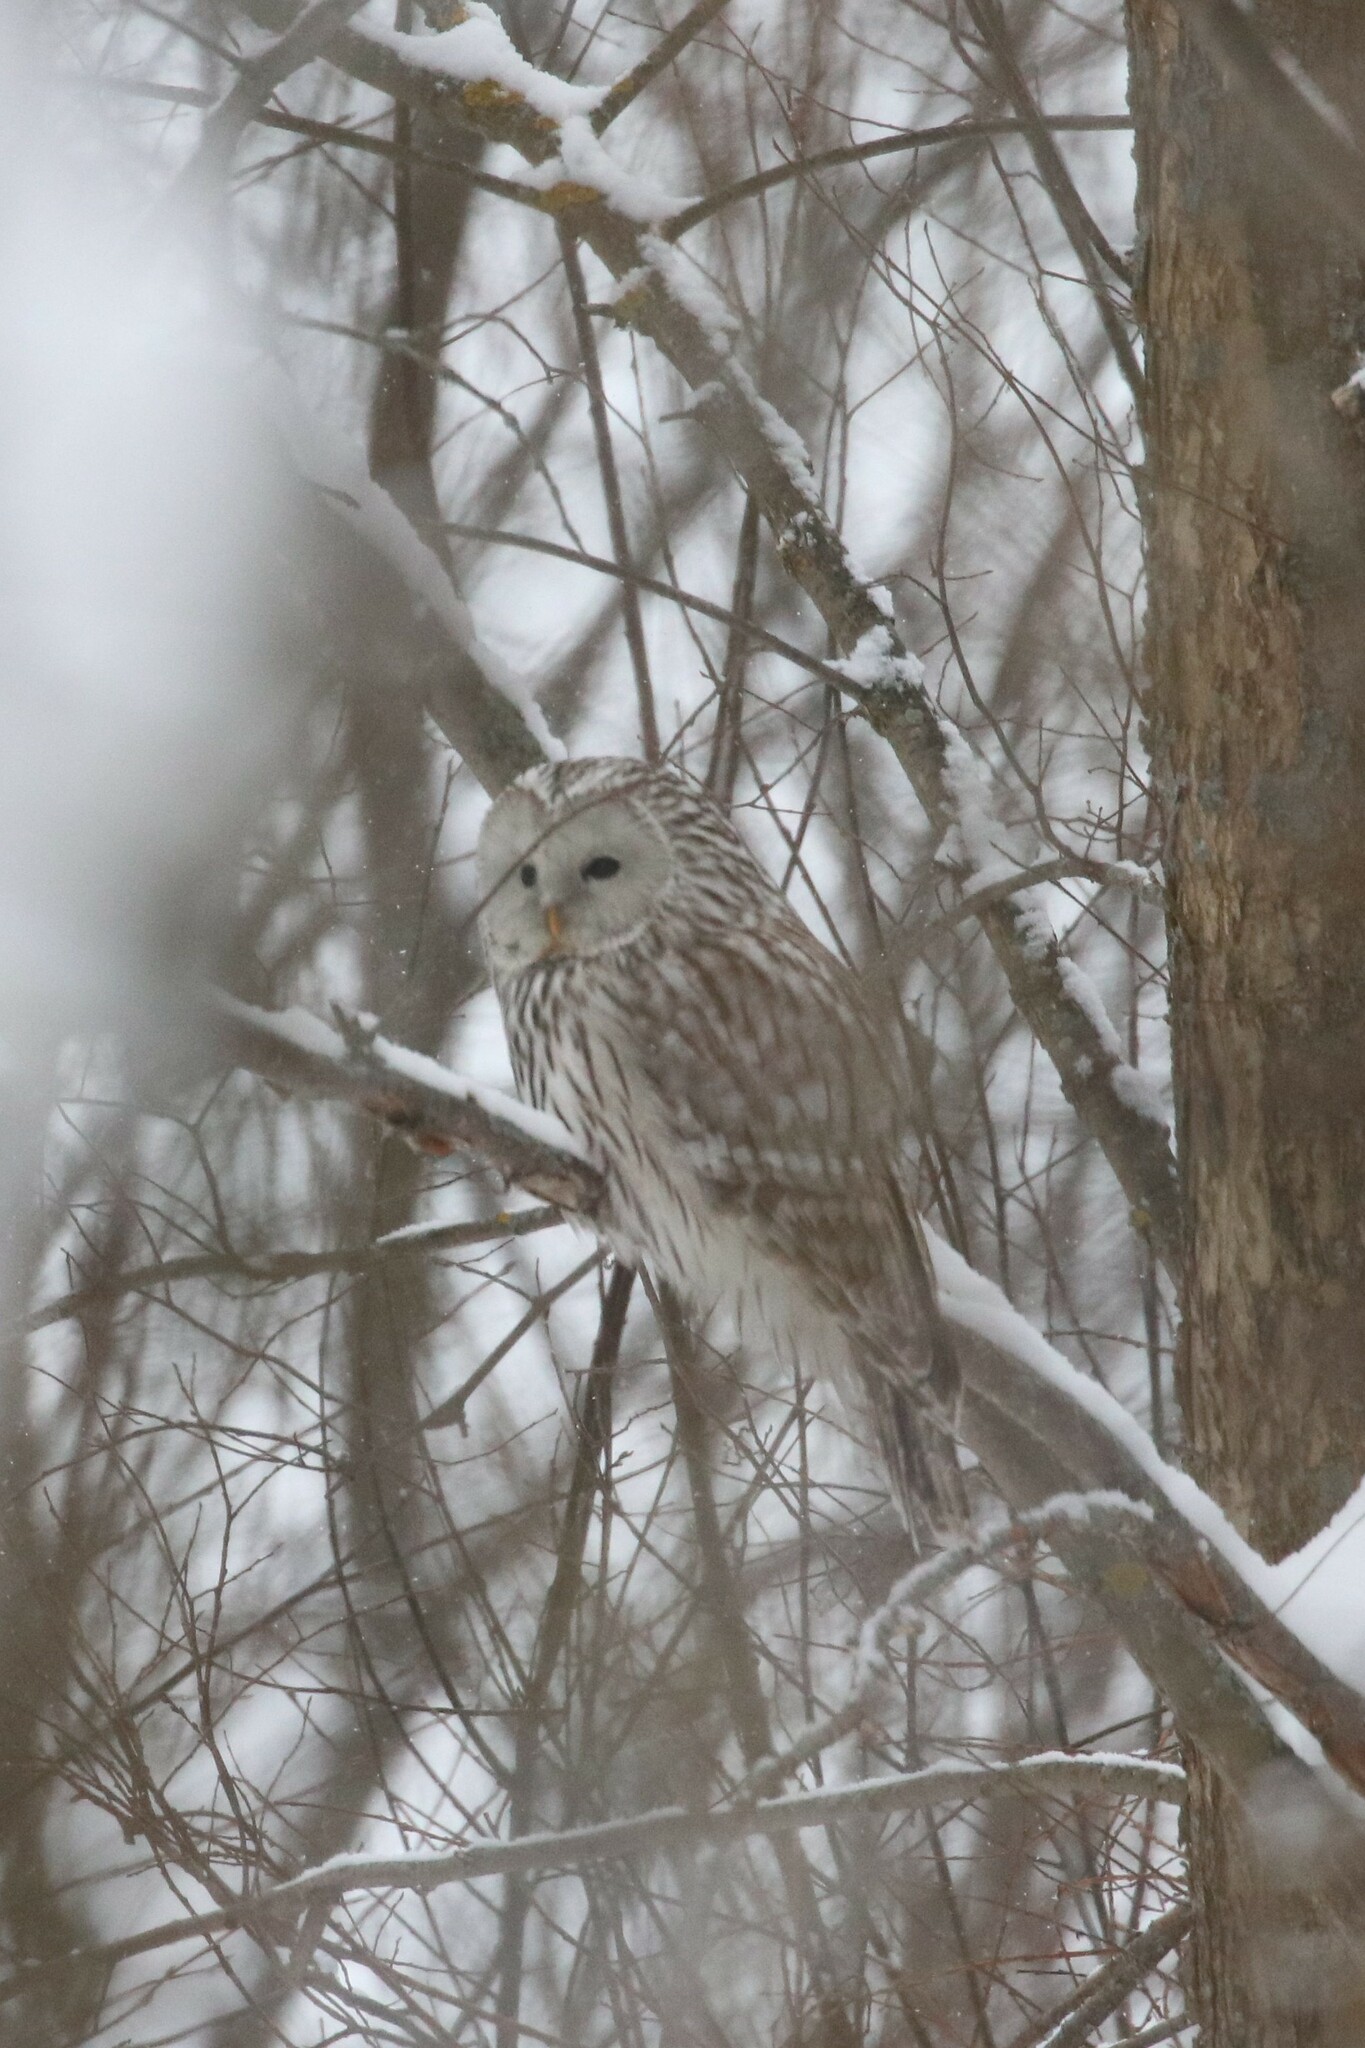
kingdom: Animalia
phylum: Chordata
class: Aves
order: Strigiformes
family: Strigidae
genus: Strix
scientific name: Strix uralensis
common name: Ural owl
